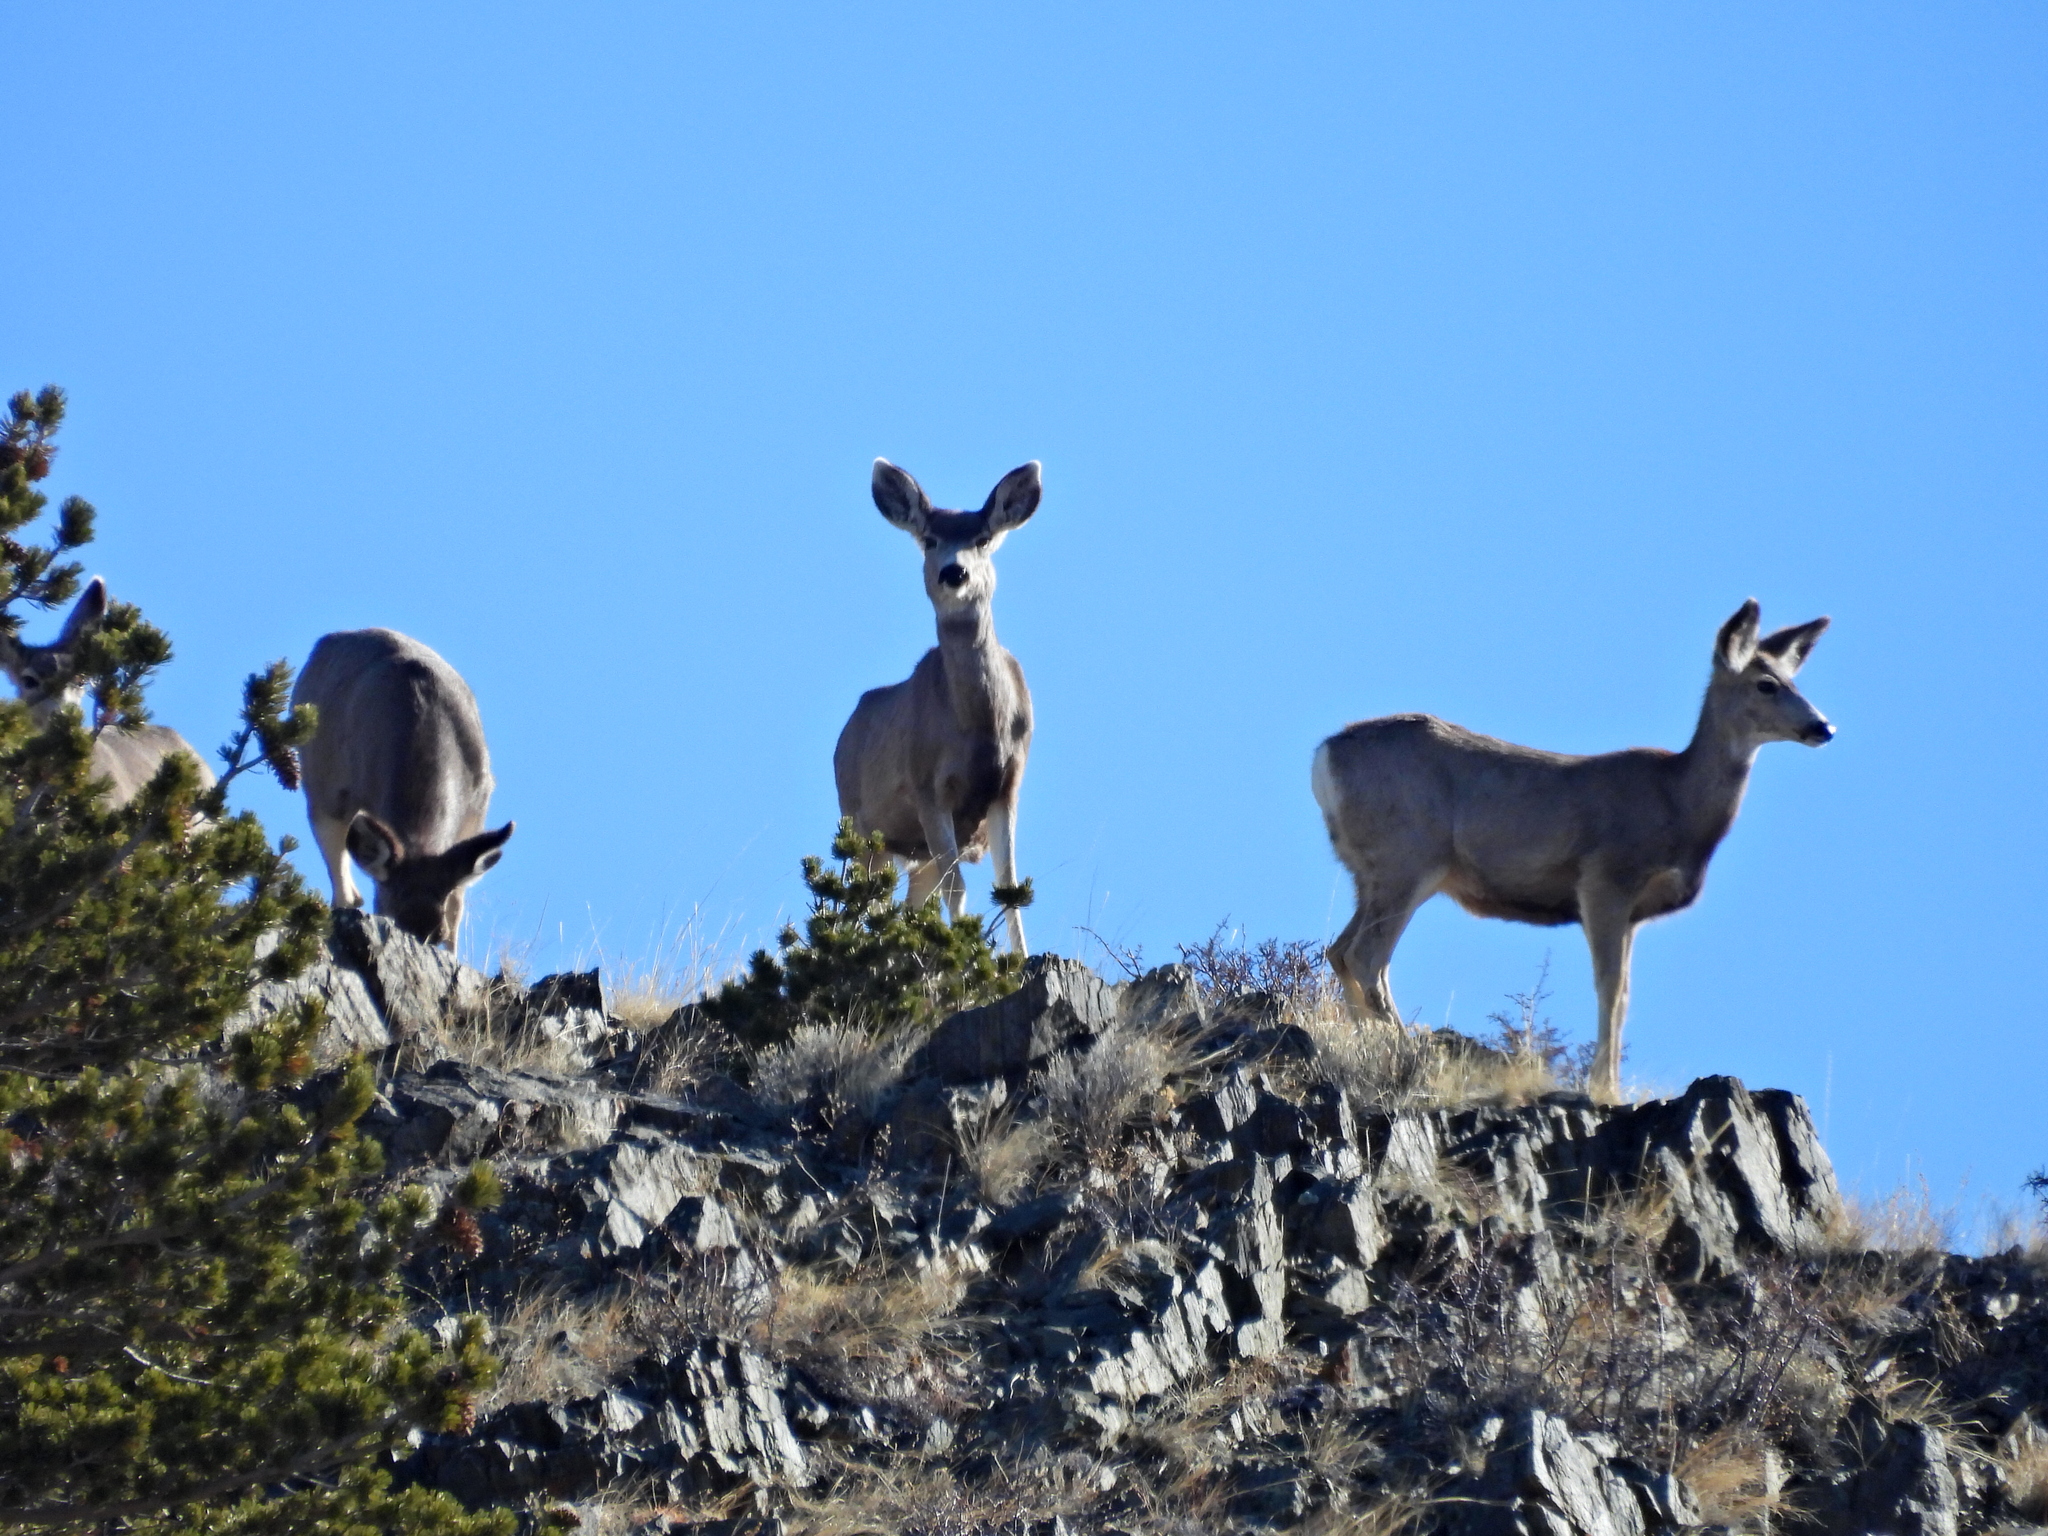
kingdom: Animalia
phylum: Chordata
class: Mammalia
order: Artiodactyla
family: Cervidae
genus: Odocoileus
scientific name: Odocoileus hemionus
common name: Mule deer
